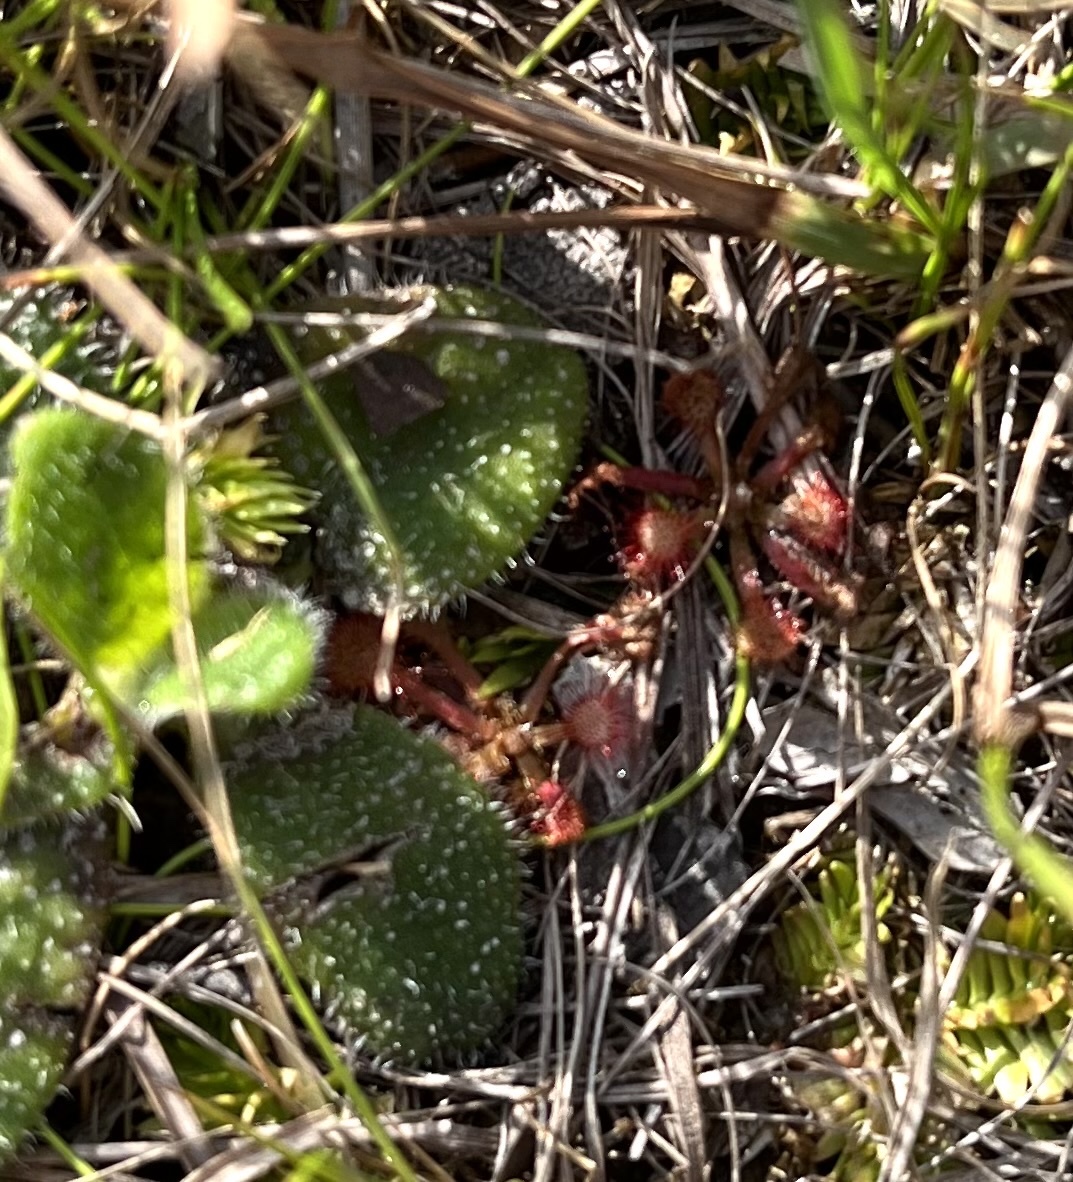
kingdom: Plantae
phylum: Tracheophyta
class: Magnoliopsida
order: Caryophyllales
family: Droseraceae
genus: Drosera
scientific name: Drosera capillaris
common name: Pink sundew
